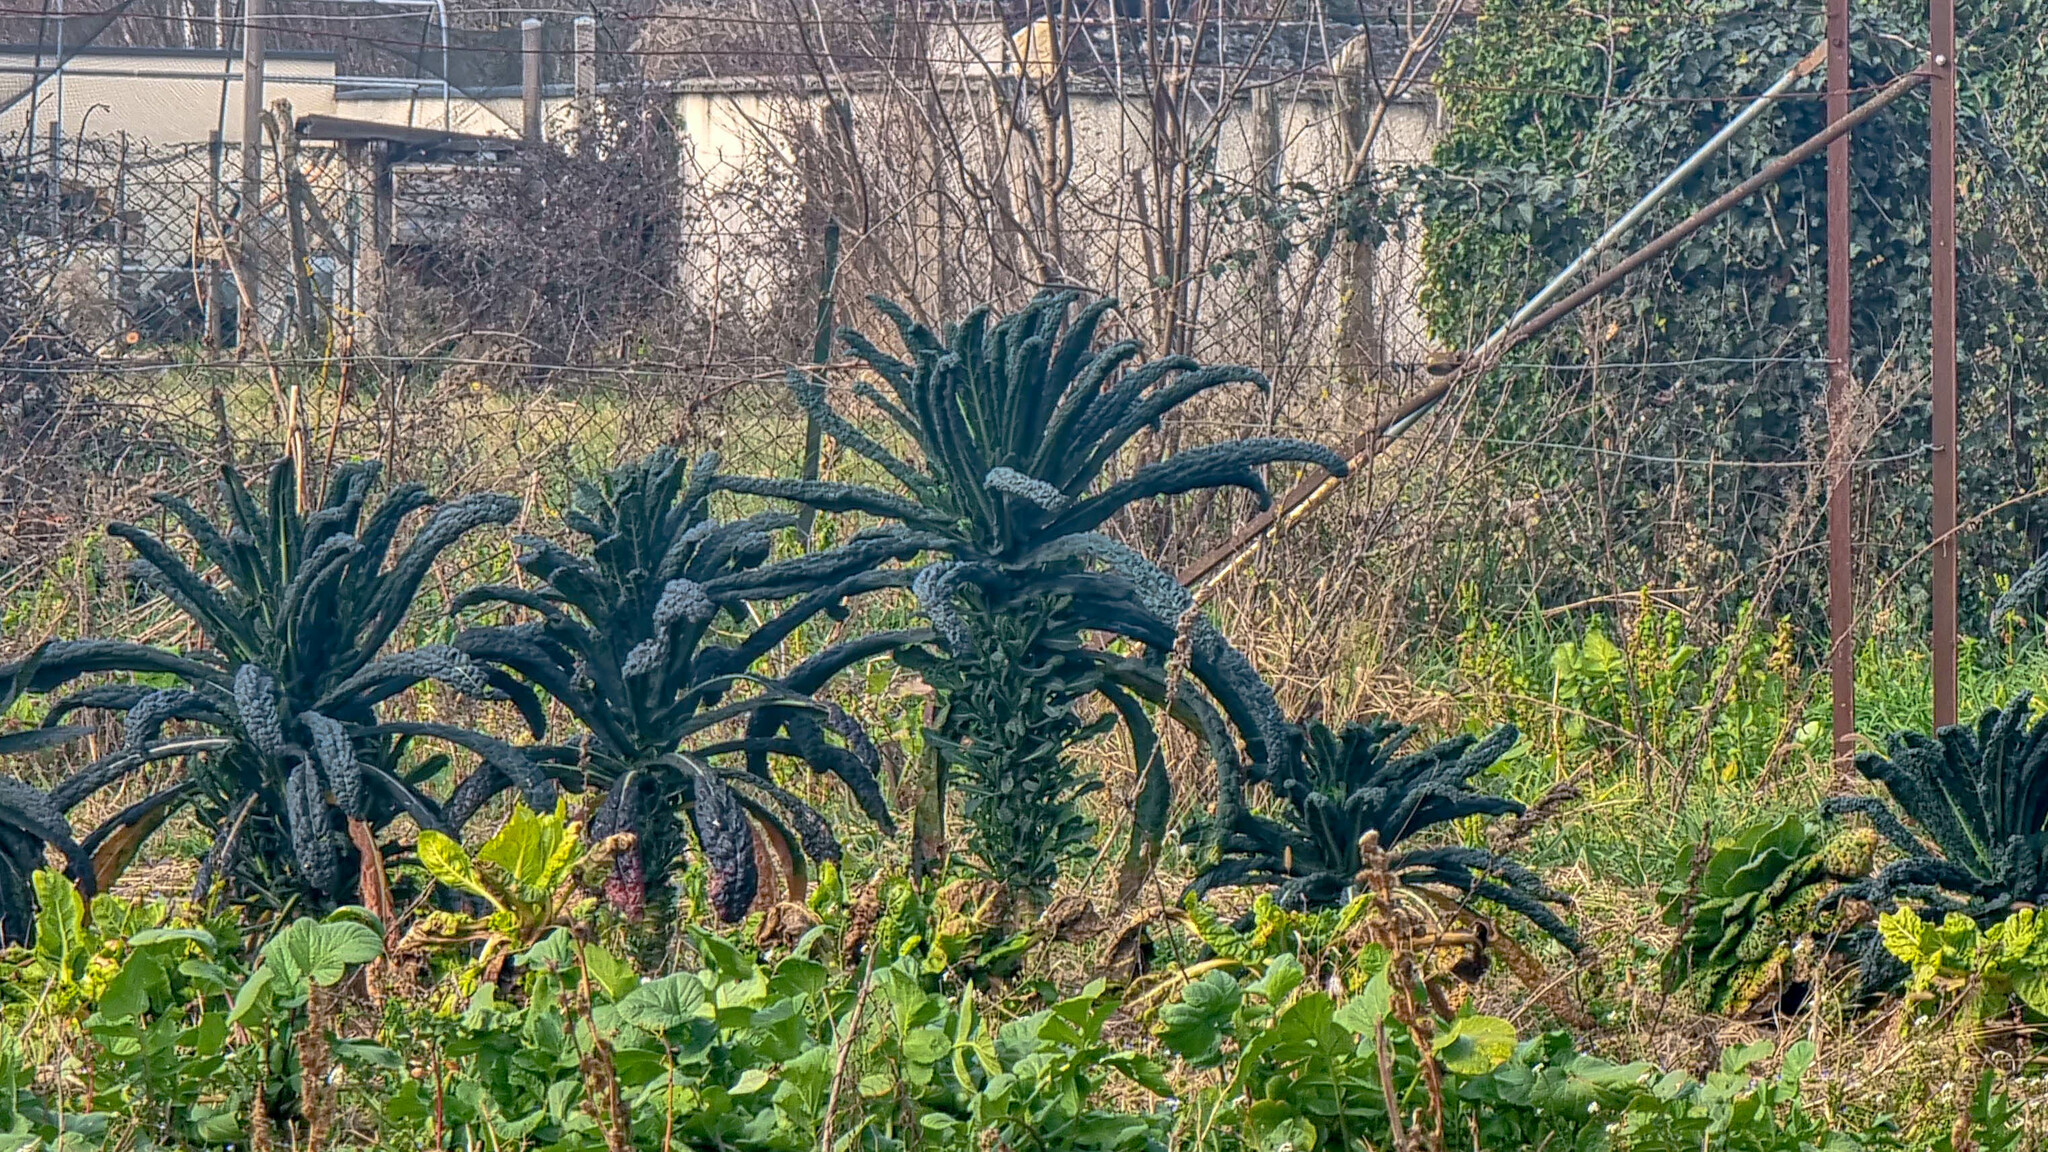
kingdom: Plantae
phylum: Tracheophyta
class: Magnoliopsida
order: Brassicales
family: Brassicaceae
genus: Brassica
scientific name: Brassica oleracea
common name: Cabbage
